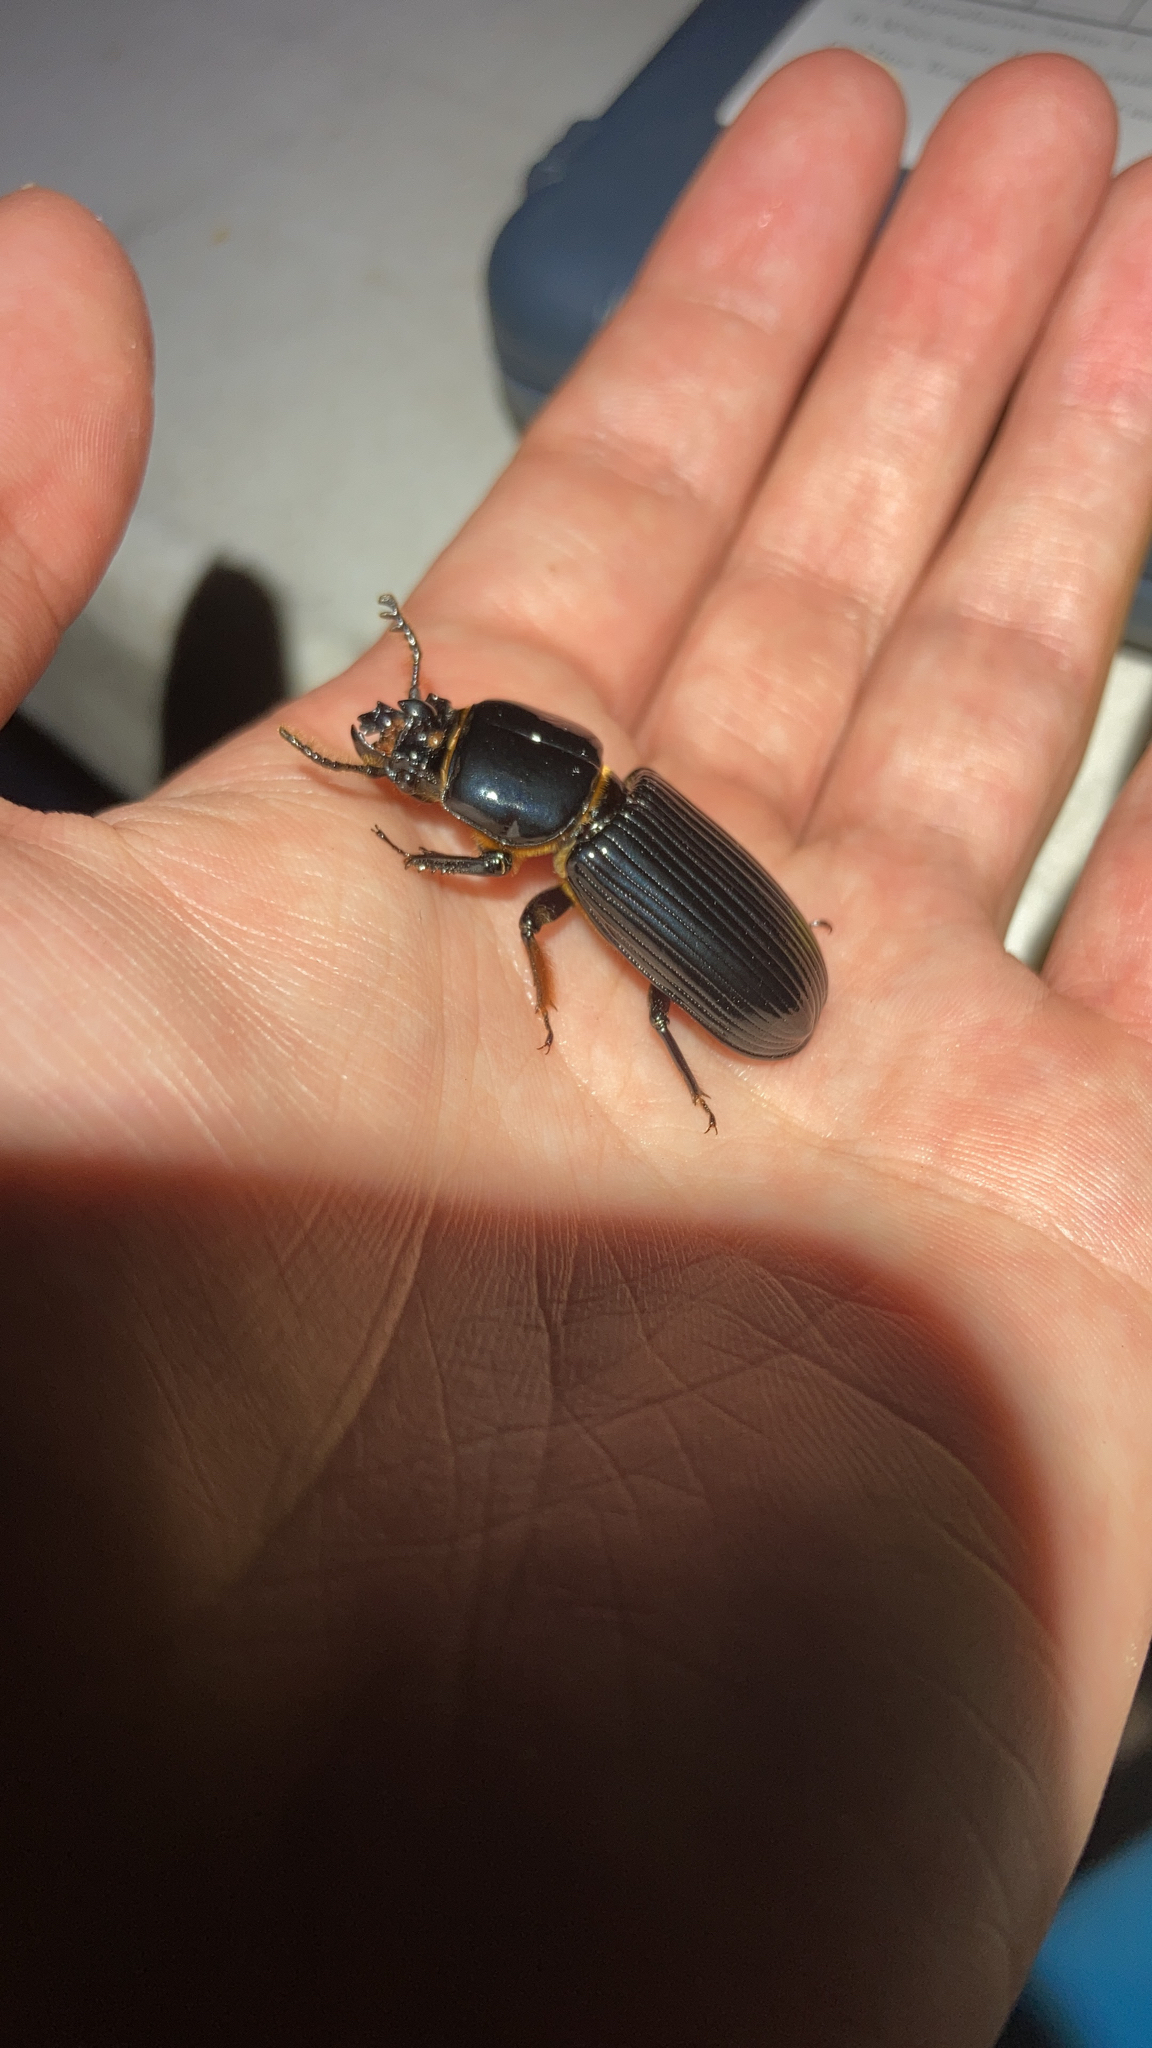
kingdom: Animalia
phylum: Arthropoda
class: Insecta
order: Coleoptera
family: Passalidae
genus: Odontotaenius
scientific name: Odontotaenius disjunctus
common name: Patent leather beetle
